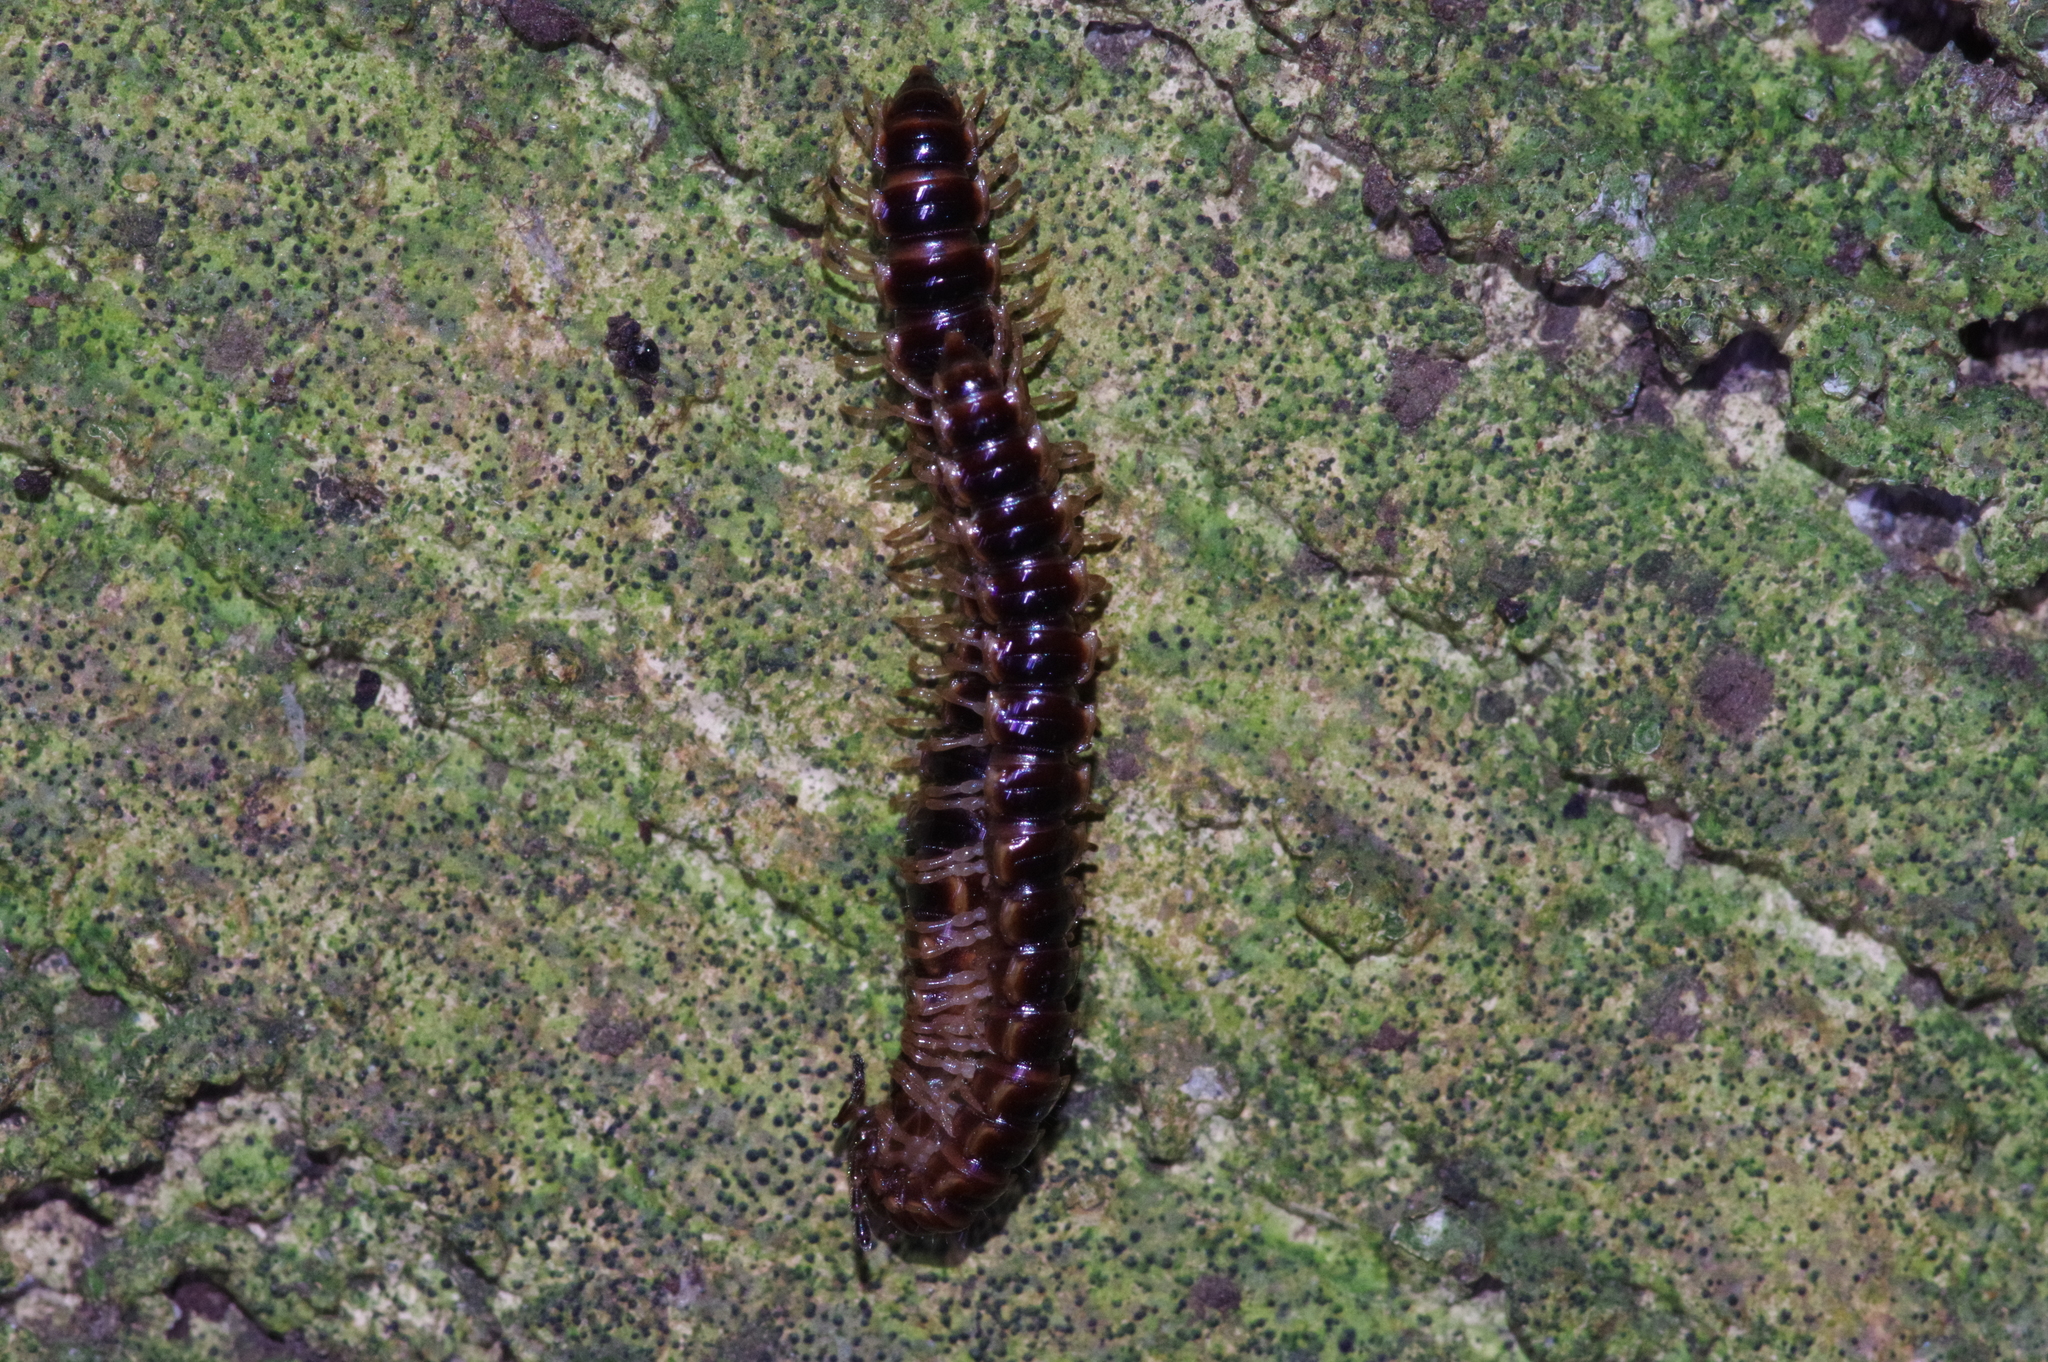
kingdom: Animalia
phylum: Arthropoda
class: Diplopoda
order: Polydesmida
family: Paradoxosomatidae
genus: Oxidus
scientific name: Oxidus gracilis
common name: Greenhouse millipede
